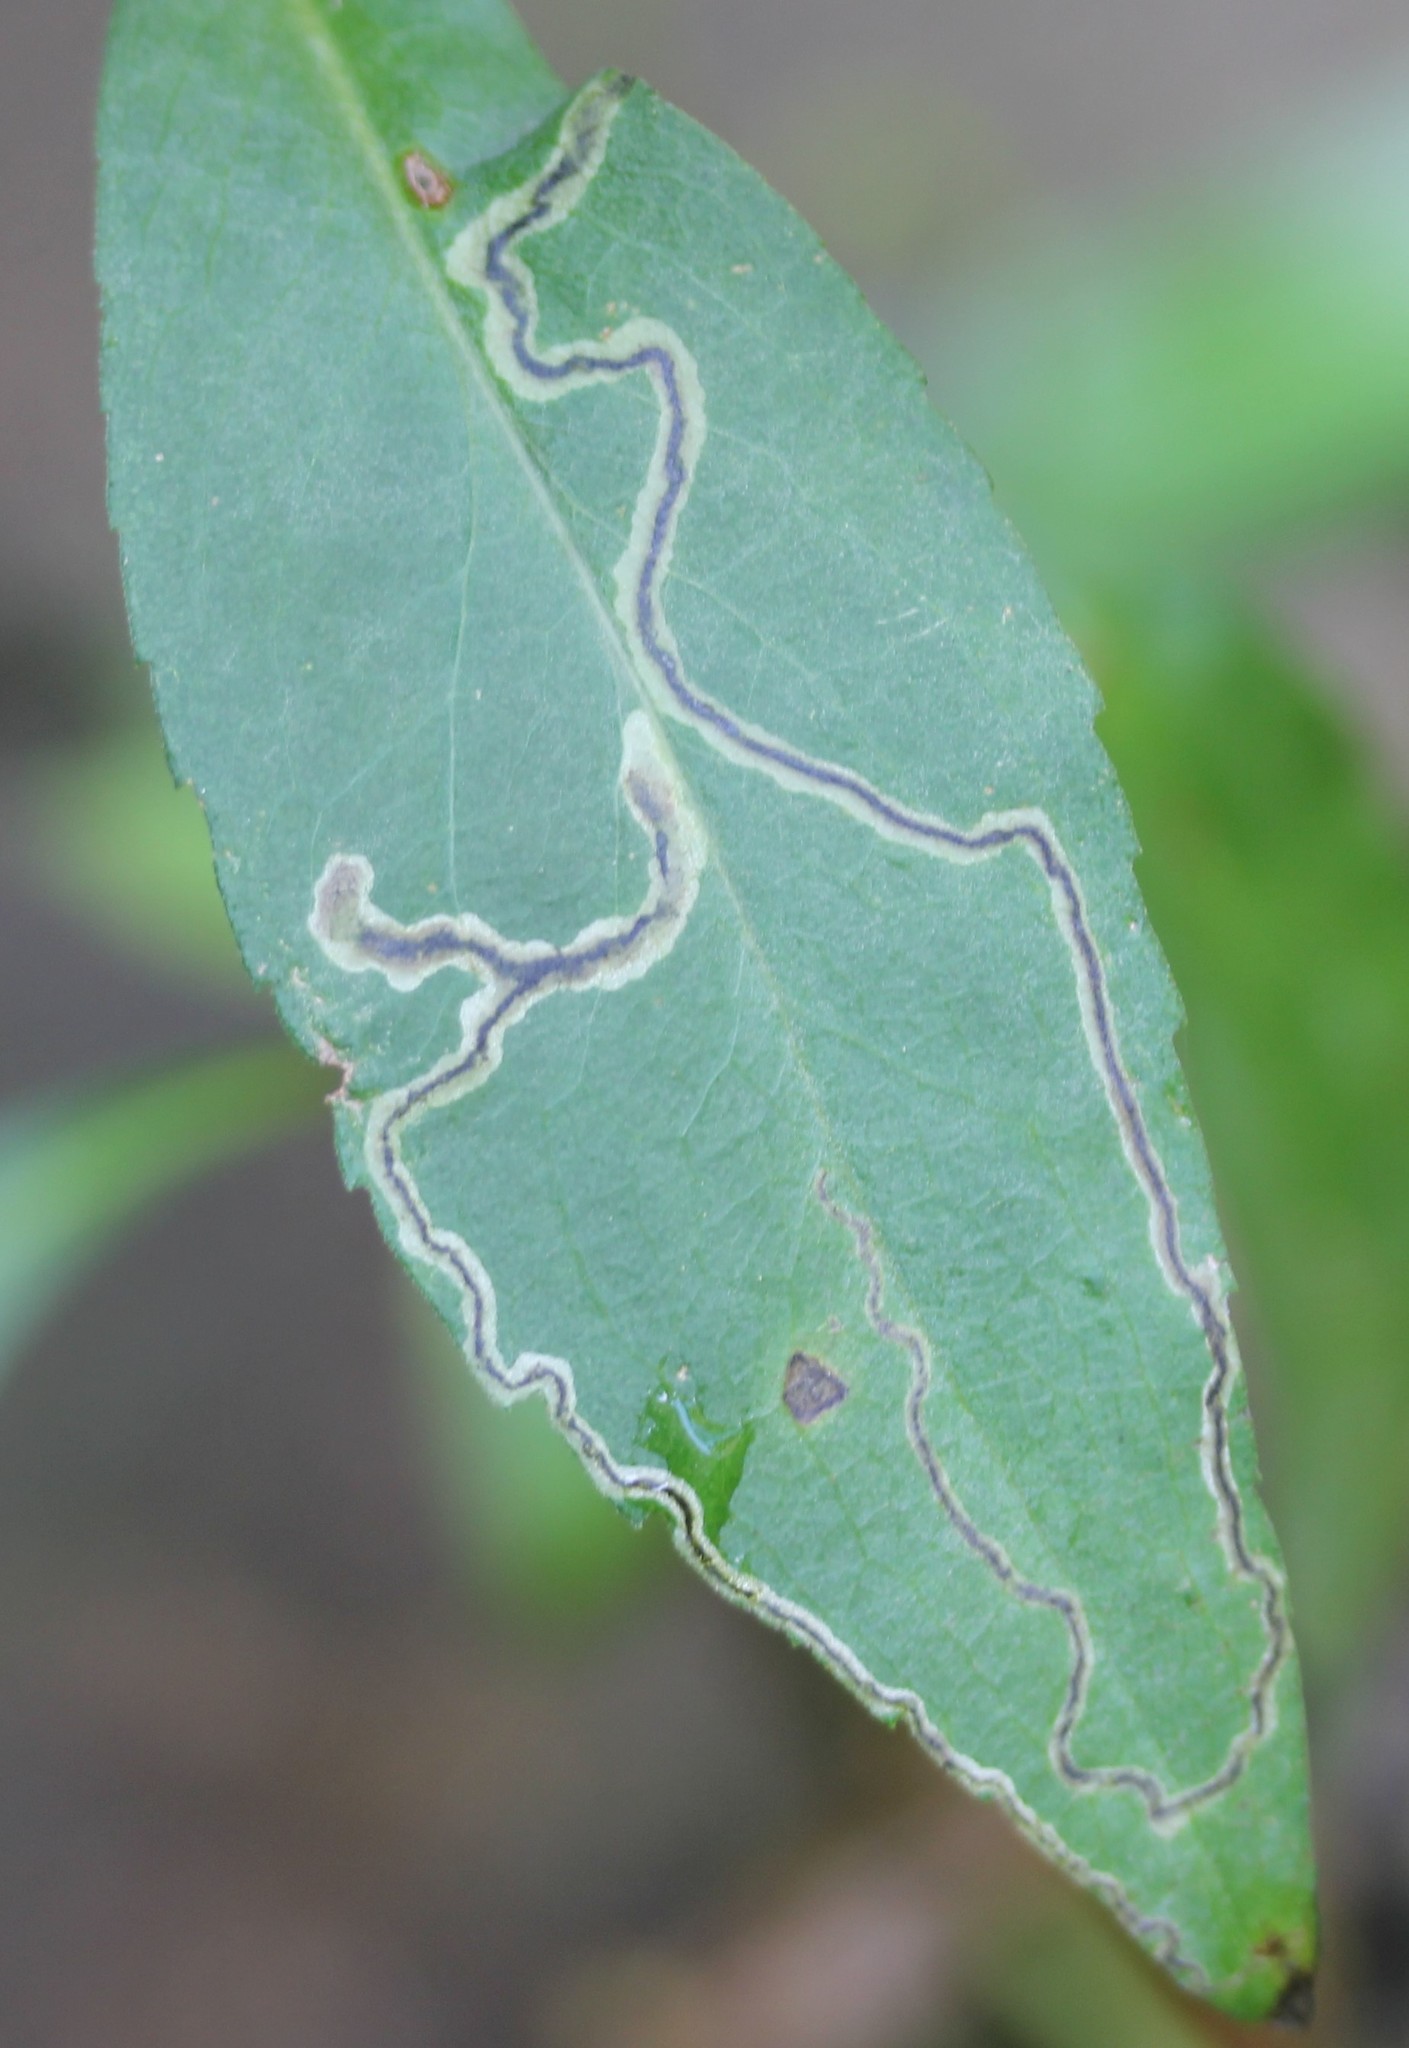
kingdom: Animalia
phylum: Arthropoda
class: Insecta
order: Diptera
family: Agromyzidae
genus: Liriomyza
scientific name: Liriomyza eupatorii
